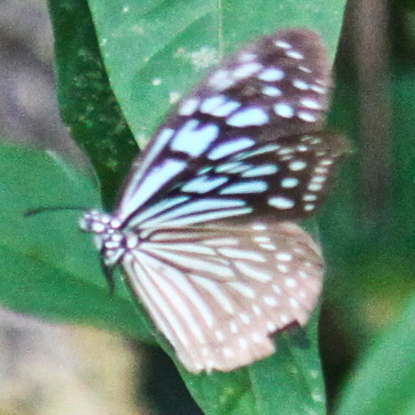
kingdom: Animalia
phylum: Arthropoda
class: Insecta
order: Lepidoptera
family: Nymphalidae
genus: Ideopsis
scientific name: Ideopsis vulgaris
